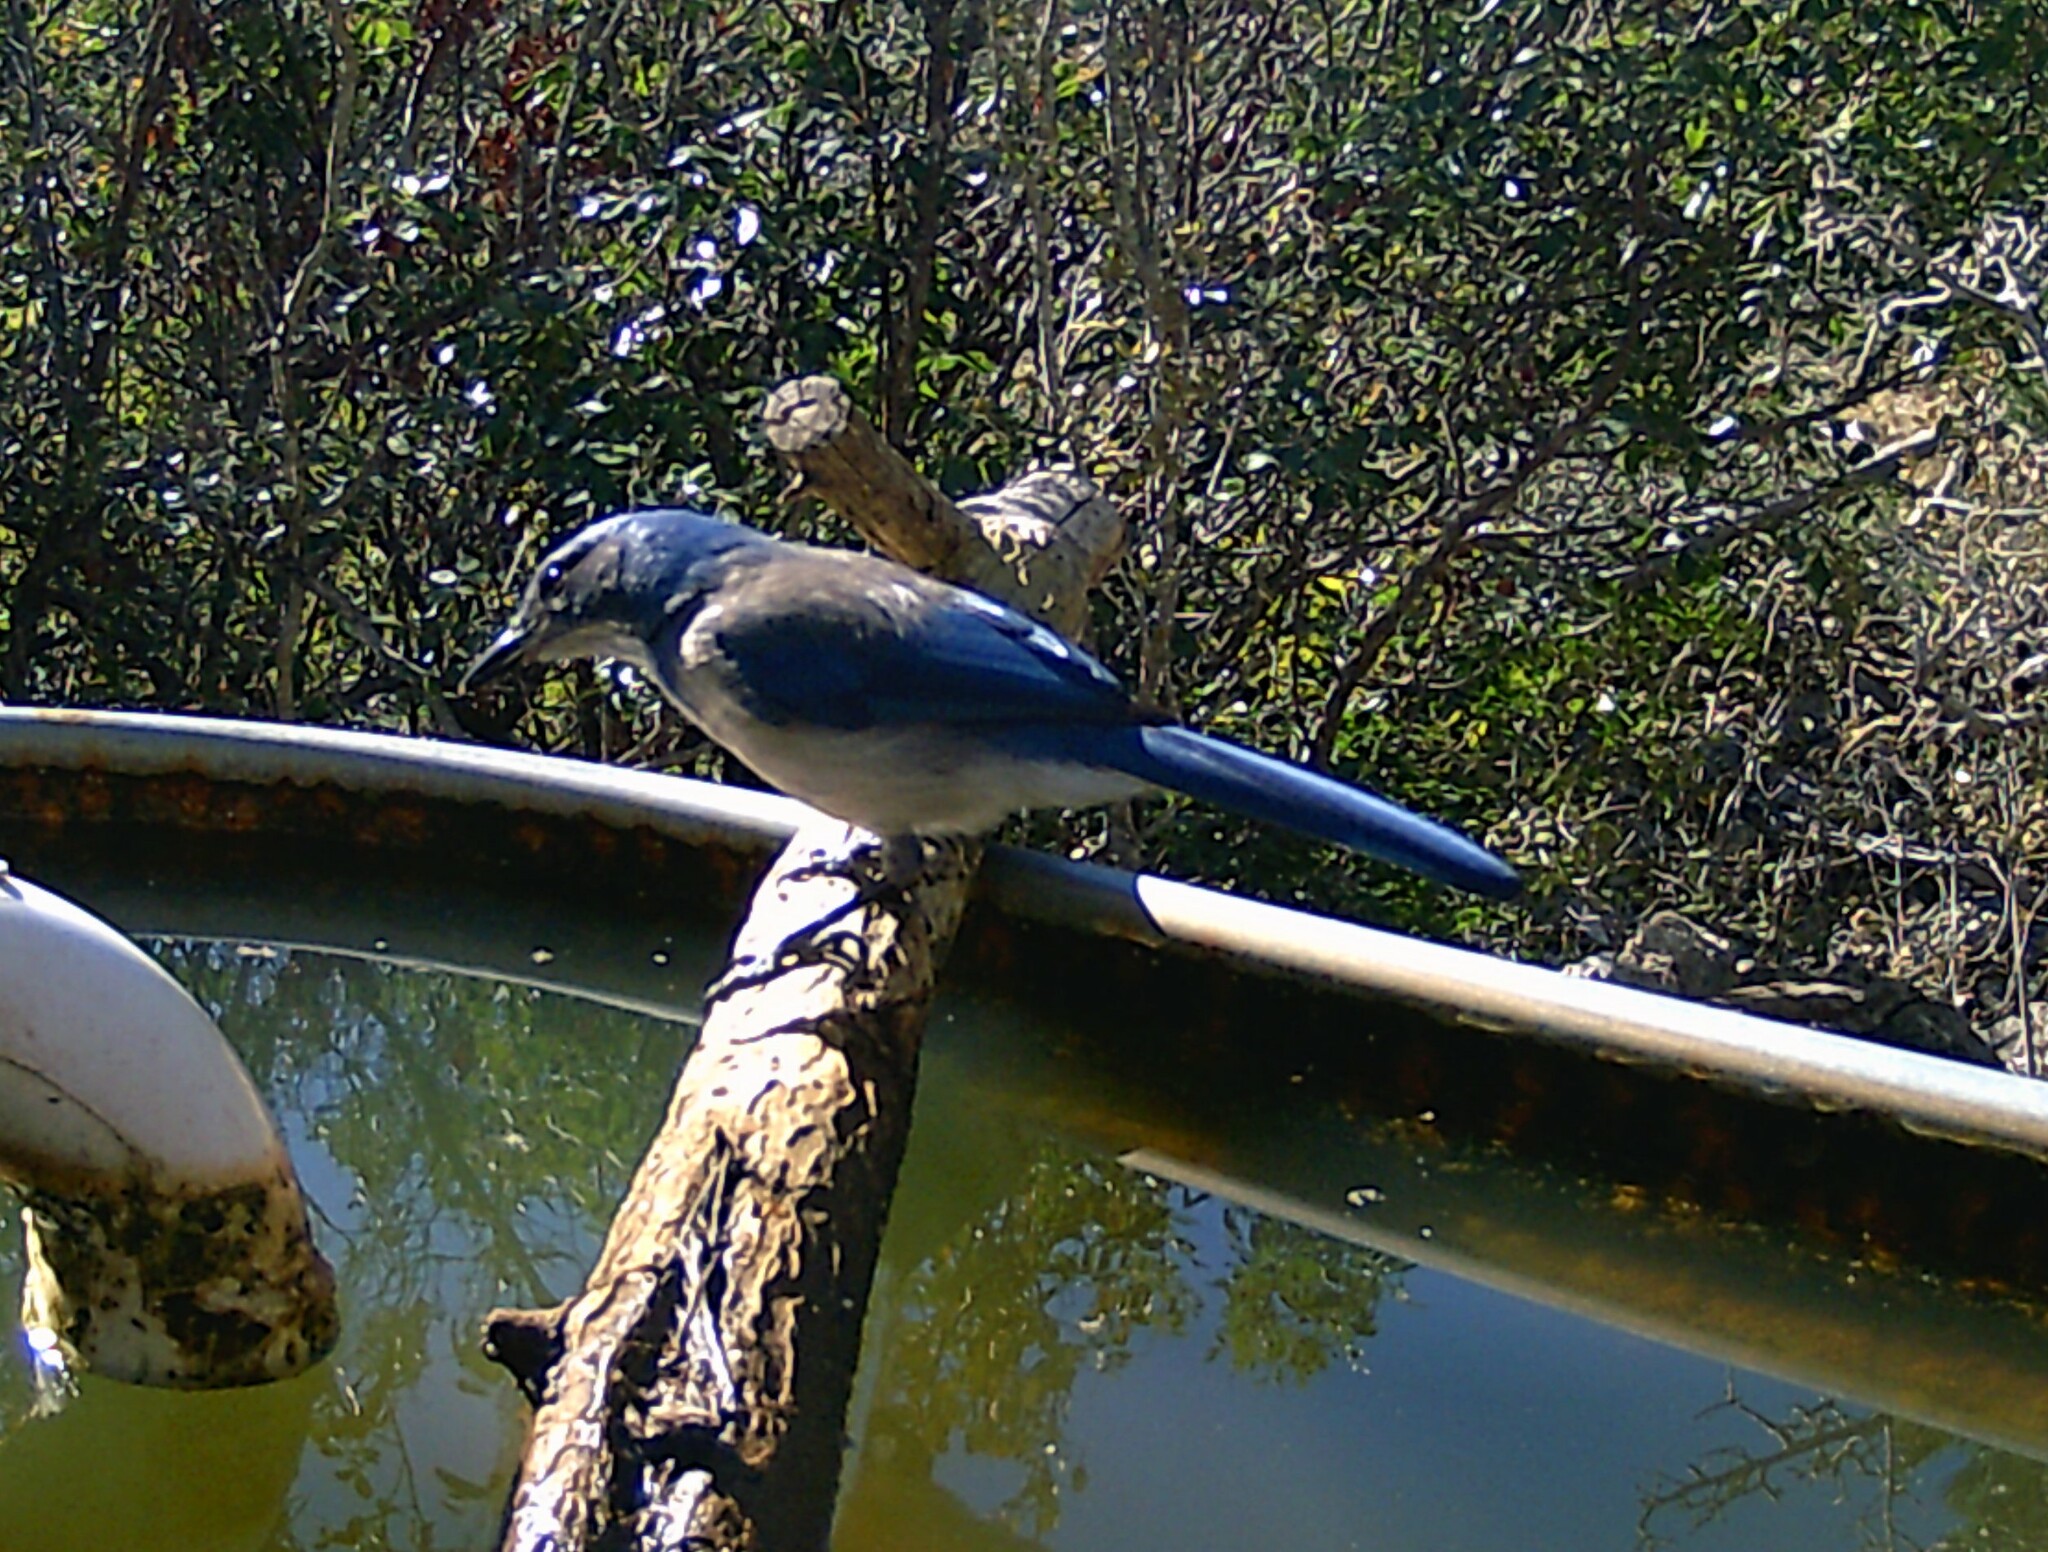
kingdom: Animalia
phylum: Chordata
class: Aves
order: Passeriformes
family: Corvidae
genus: Aphelocoma
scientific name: Aphelocoma woodhouseii
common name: Woodhouse's scrub-jay
